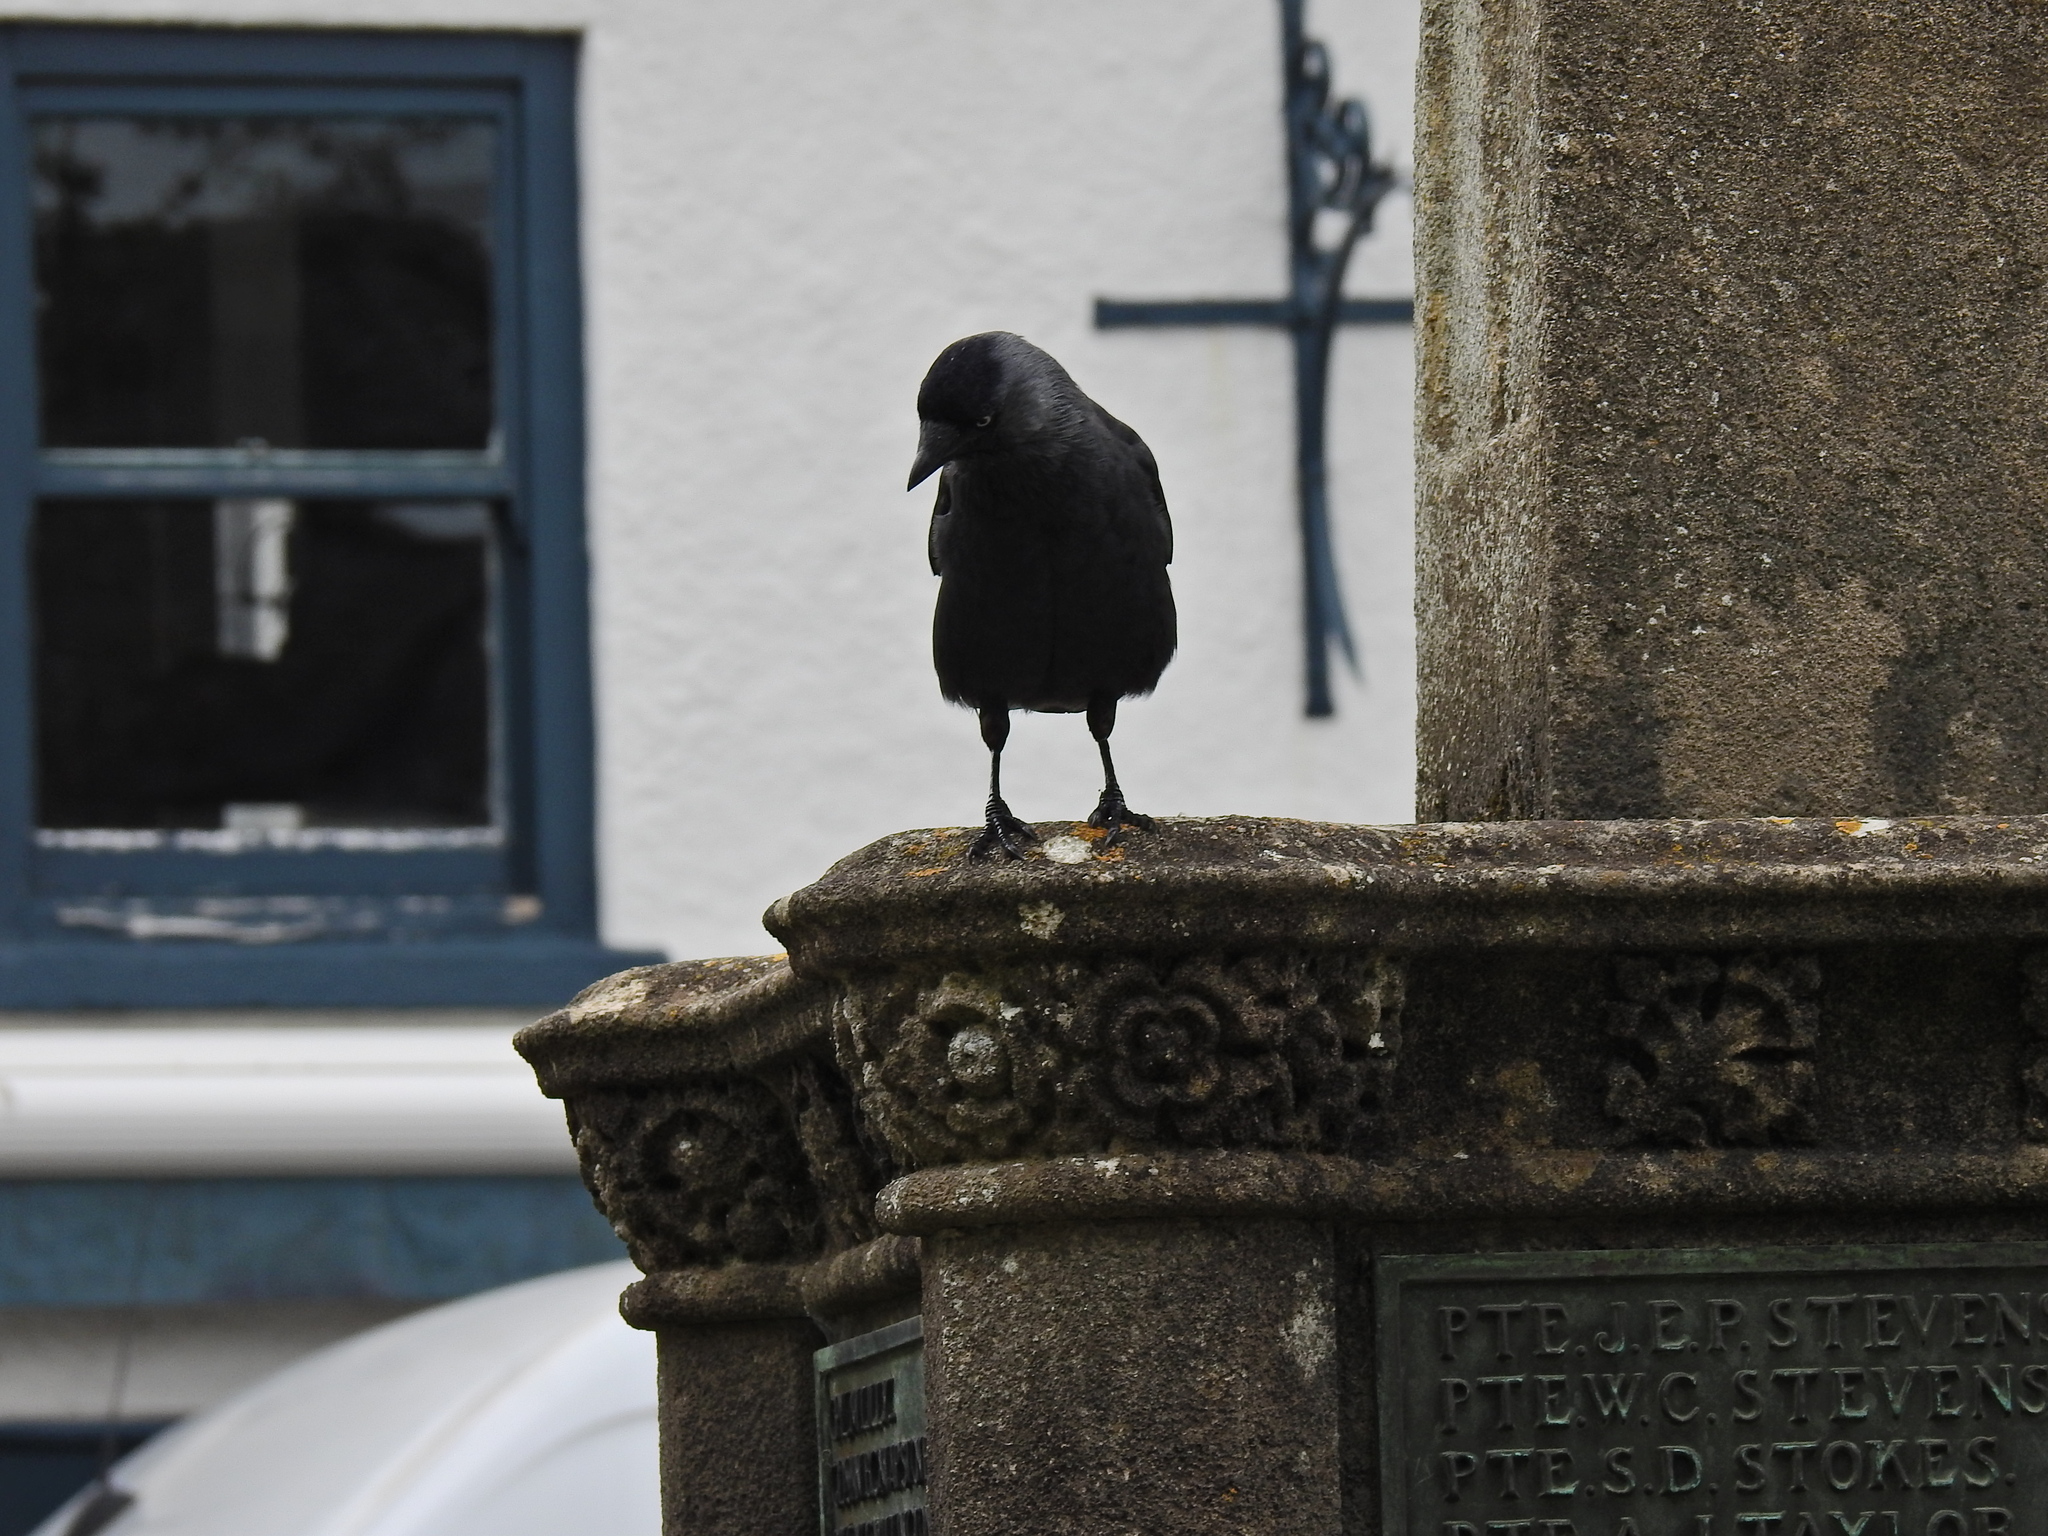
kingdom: Animalia
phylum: Chordata
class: Aves
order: Passeriformes
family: Corvidae
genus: Coloeus
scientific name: Coloeus monedula
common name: Western jackdaw
